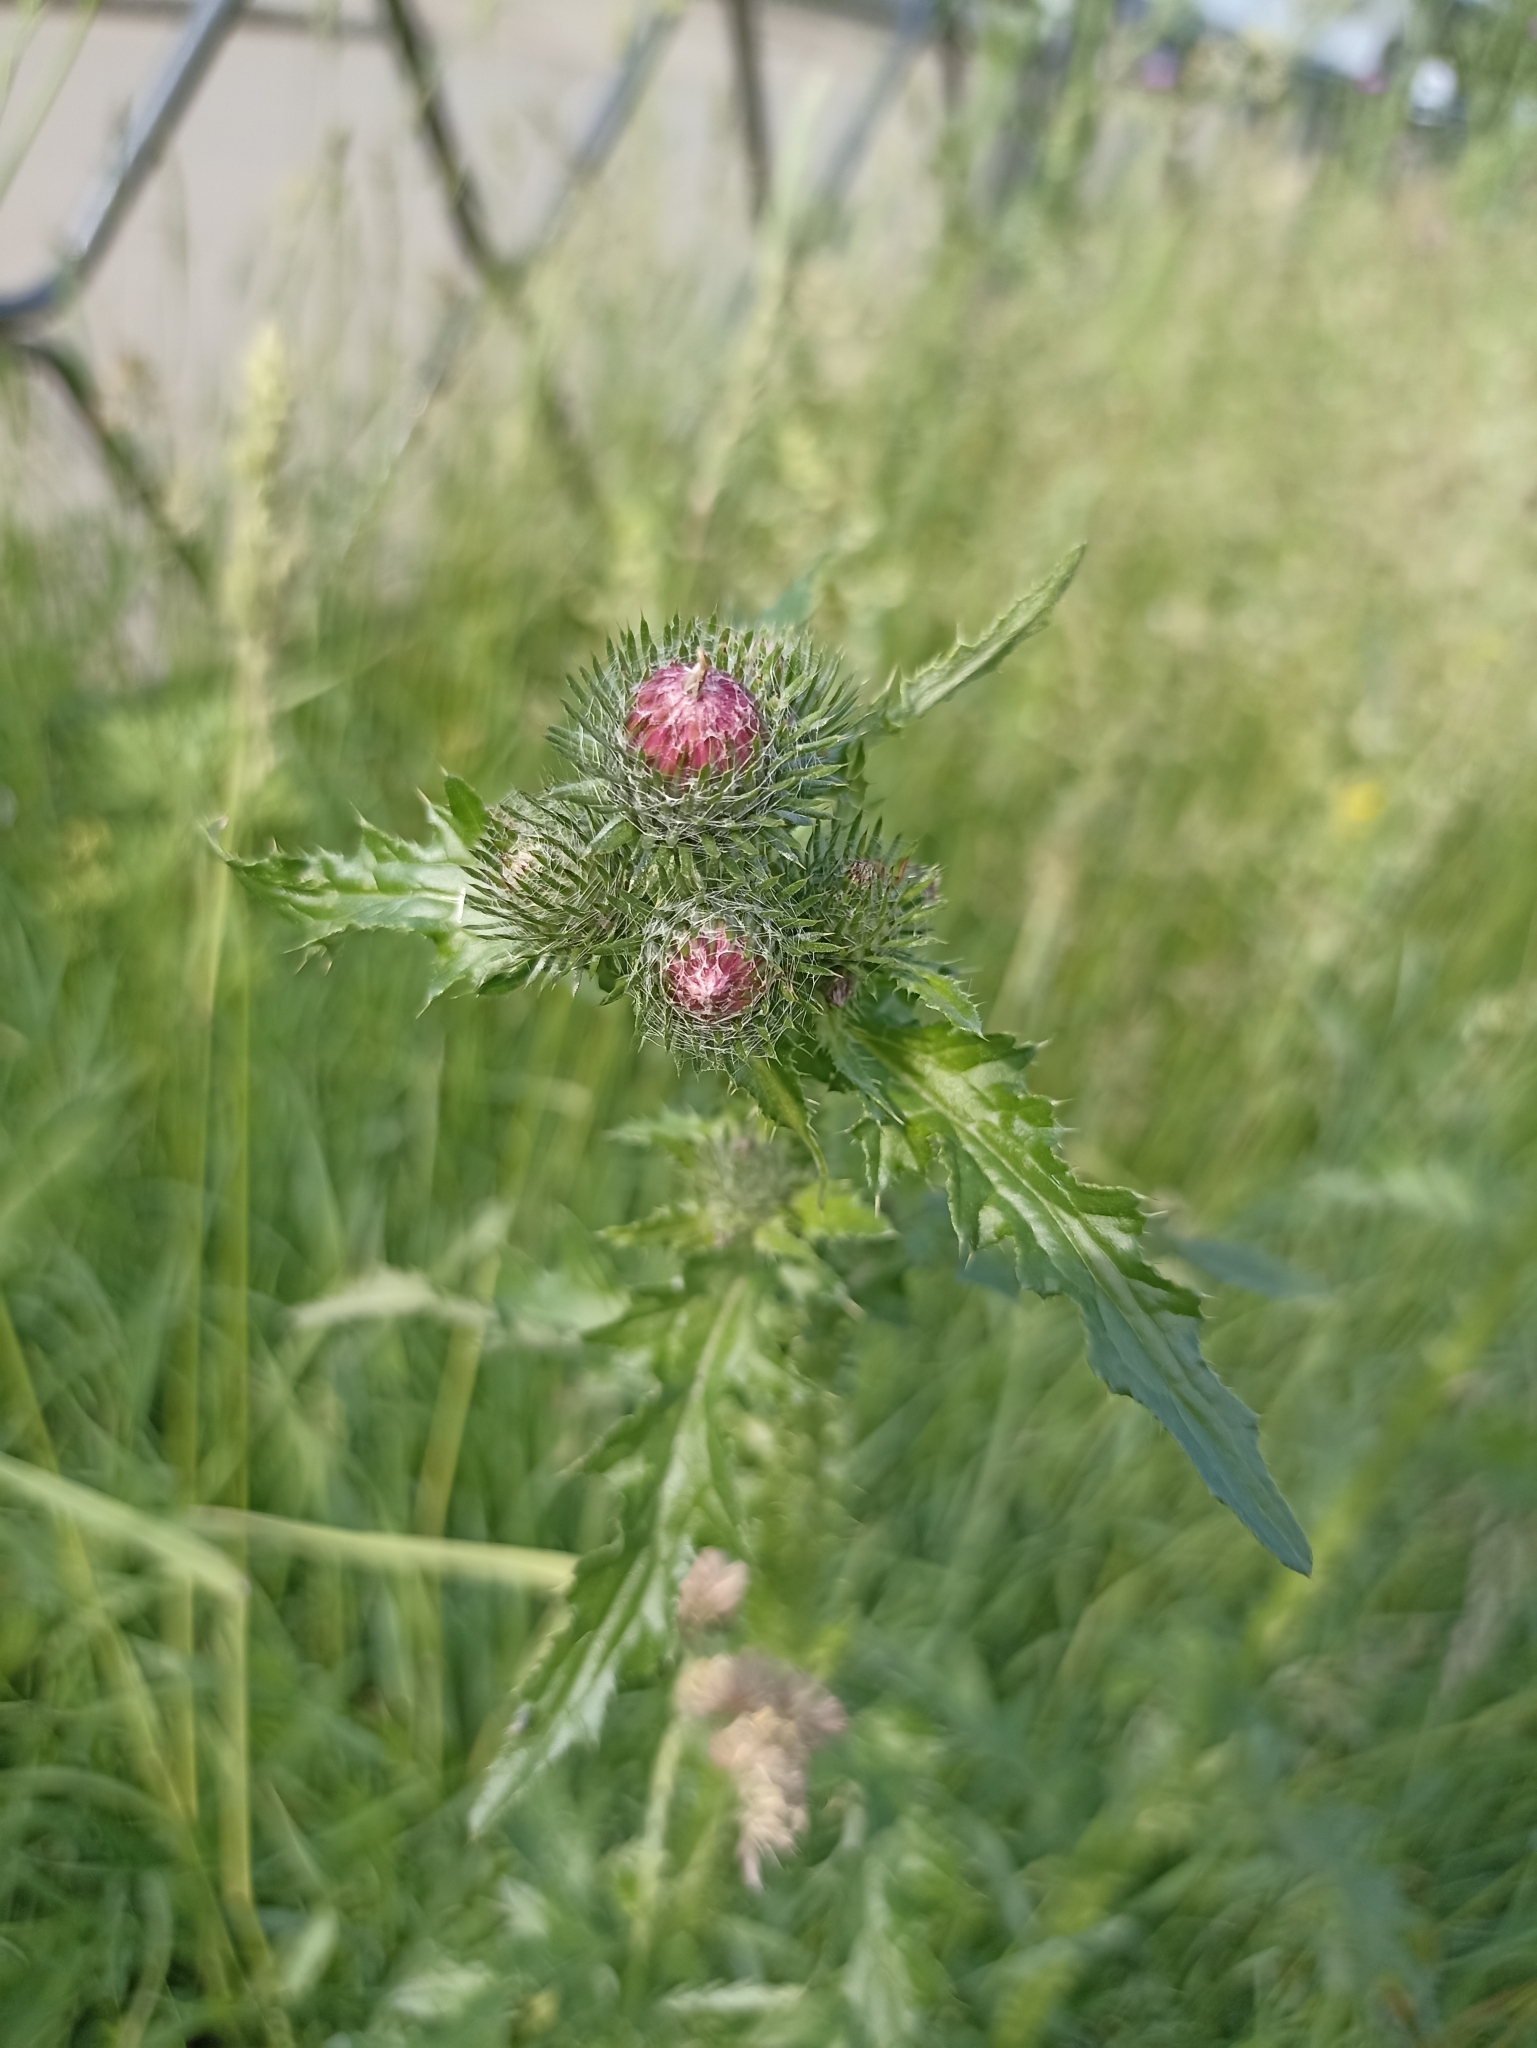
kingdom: Plantae
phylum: Tracheophyta
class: Magnoliopsida
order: Asterales
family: Asteraceae
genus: Carduus
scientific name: Carduus crispus
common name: Welted thistle
